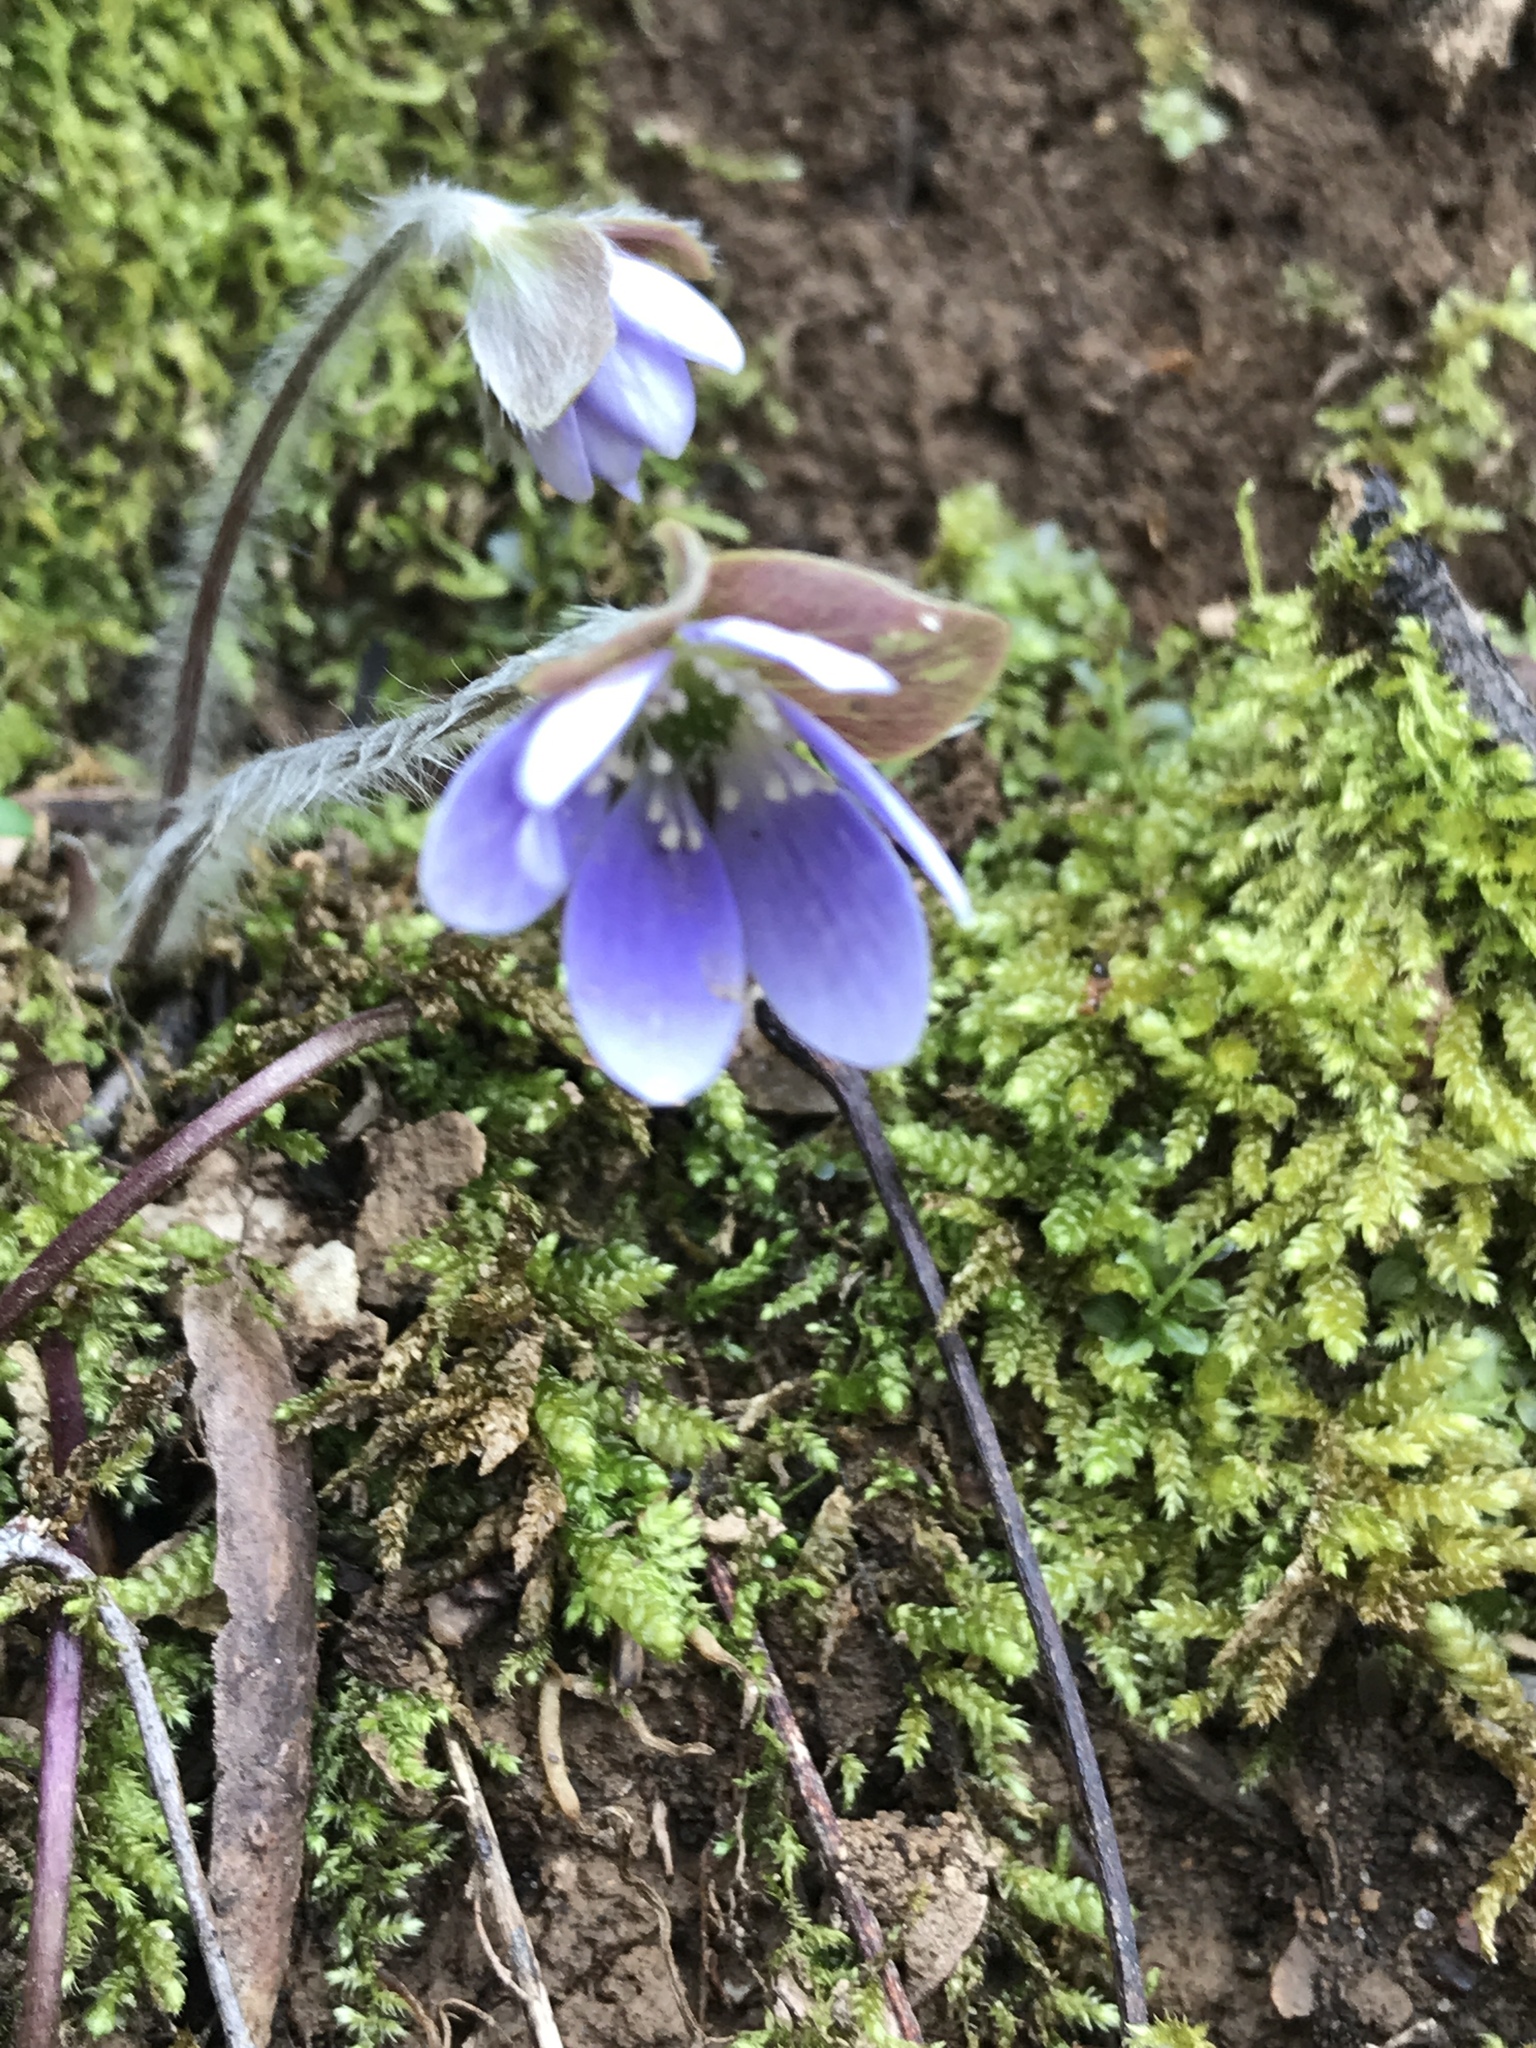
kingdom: Plantae
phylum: Tracheophyta
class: Magnoliopsida
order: Ranunculales
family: Ranunculaceae
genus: Hepatica
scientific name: Hepatica americana
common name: American hepatica
